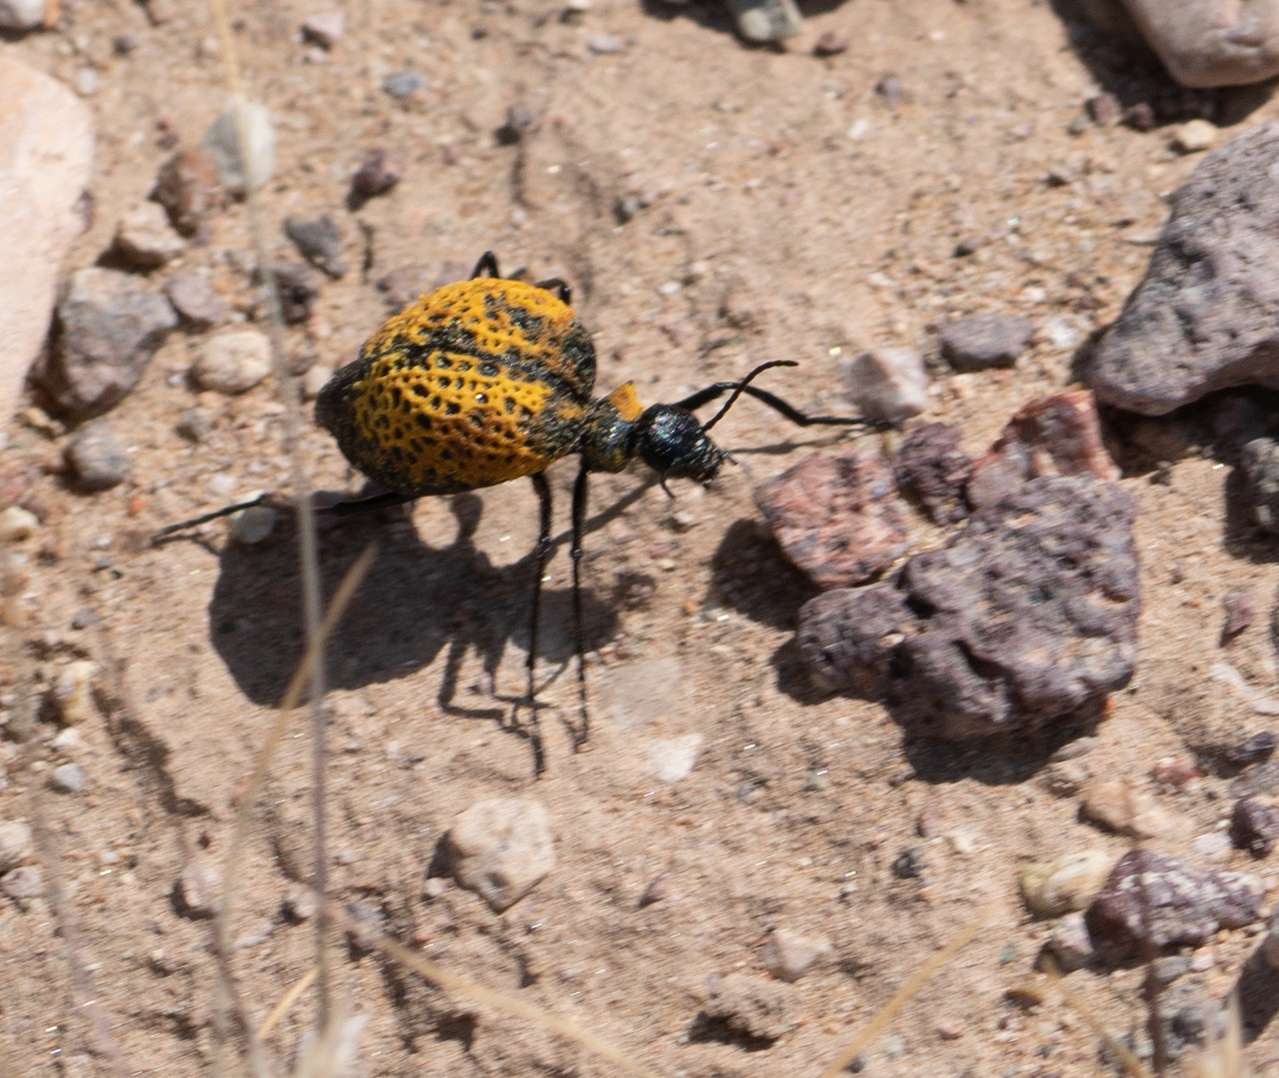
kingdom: Animalia
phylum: Arthropoda
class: Insecta
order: Coleoptera
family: Meloidae
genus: Cysteodemus
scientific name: Cysteodemus armatus
